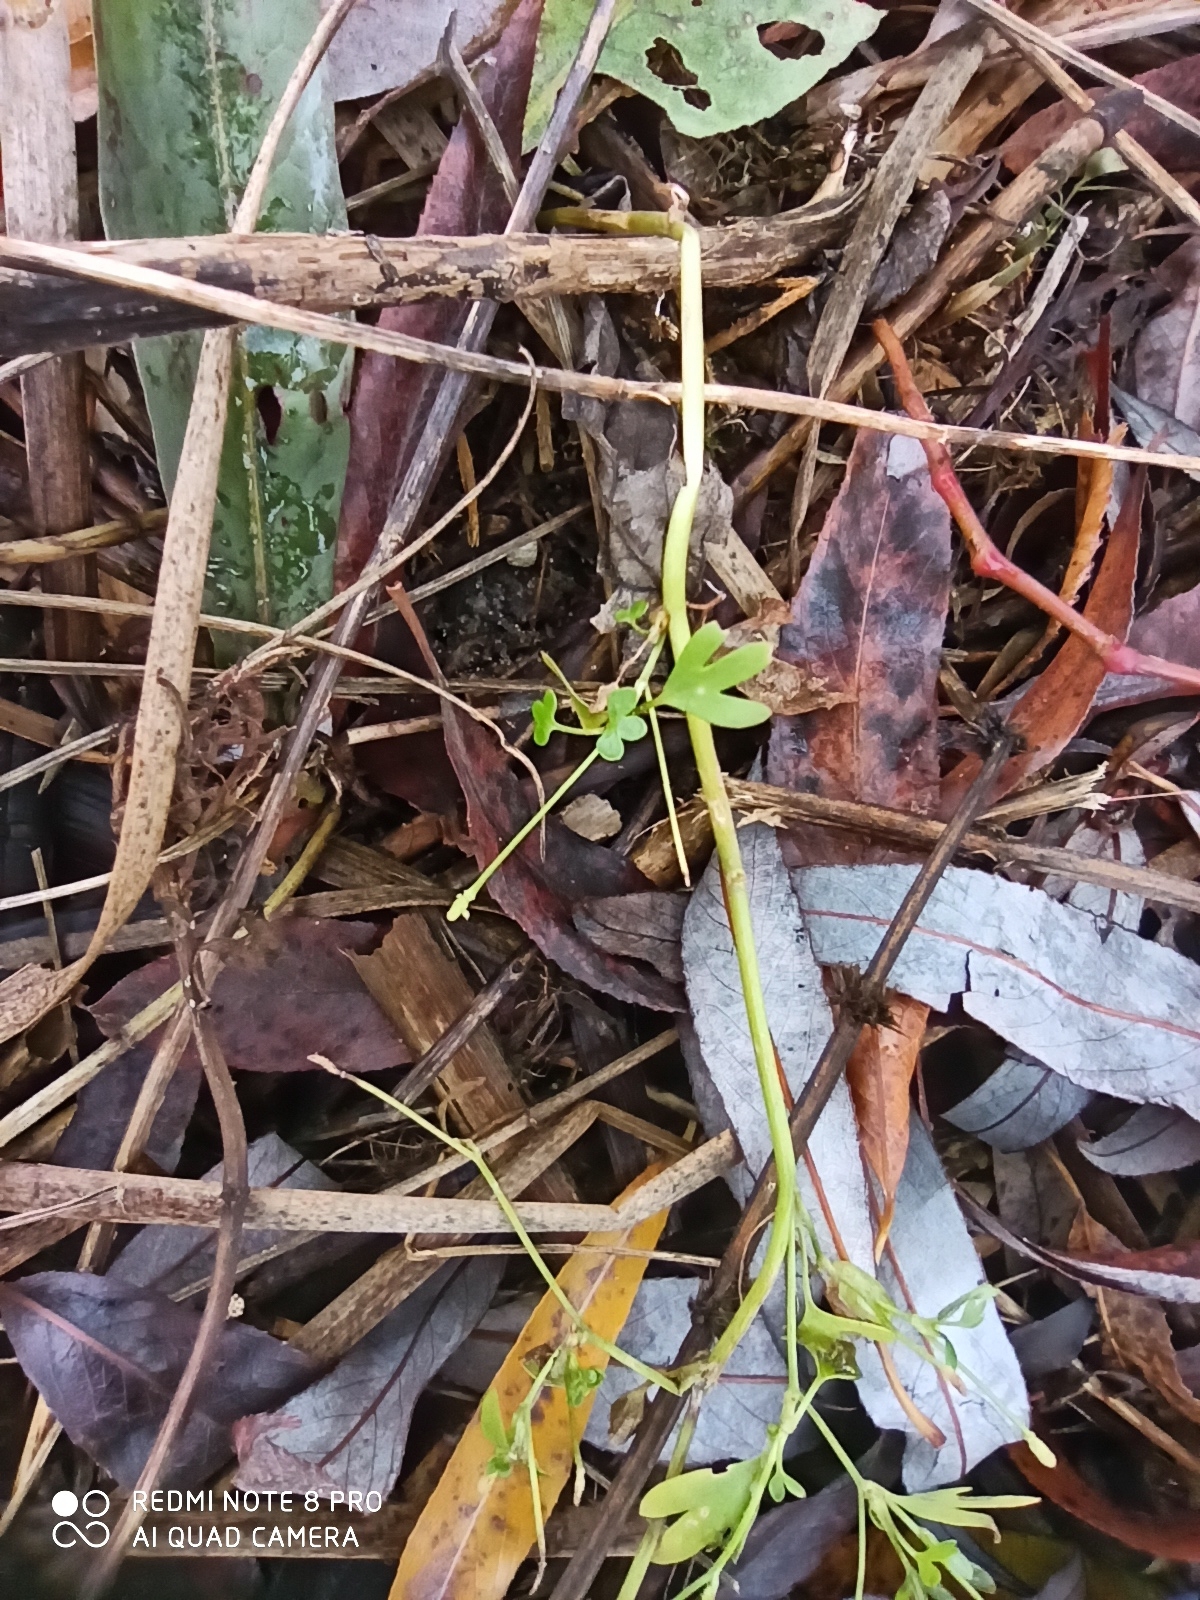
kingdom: Plantae
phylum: Tracheophyta
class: Magnoliopsida
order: Ranunculales
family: Ranunculaceae
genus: Ranunculus
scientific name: Ranunculus sceleratus
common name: Celery-leaved buttercup
